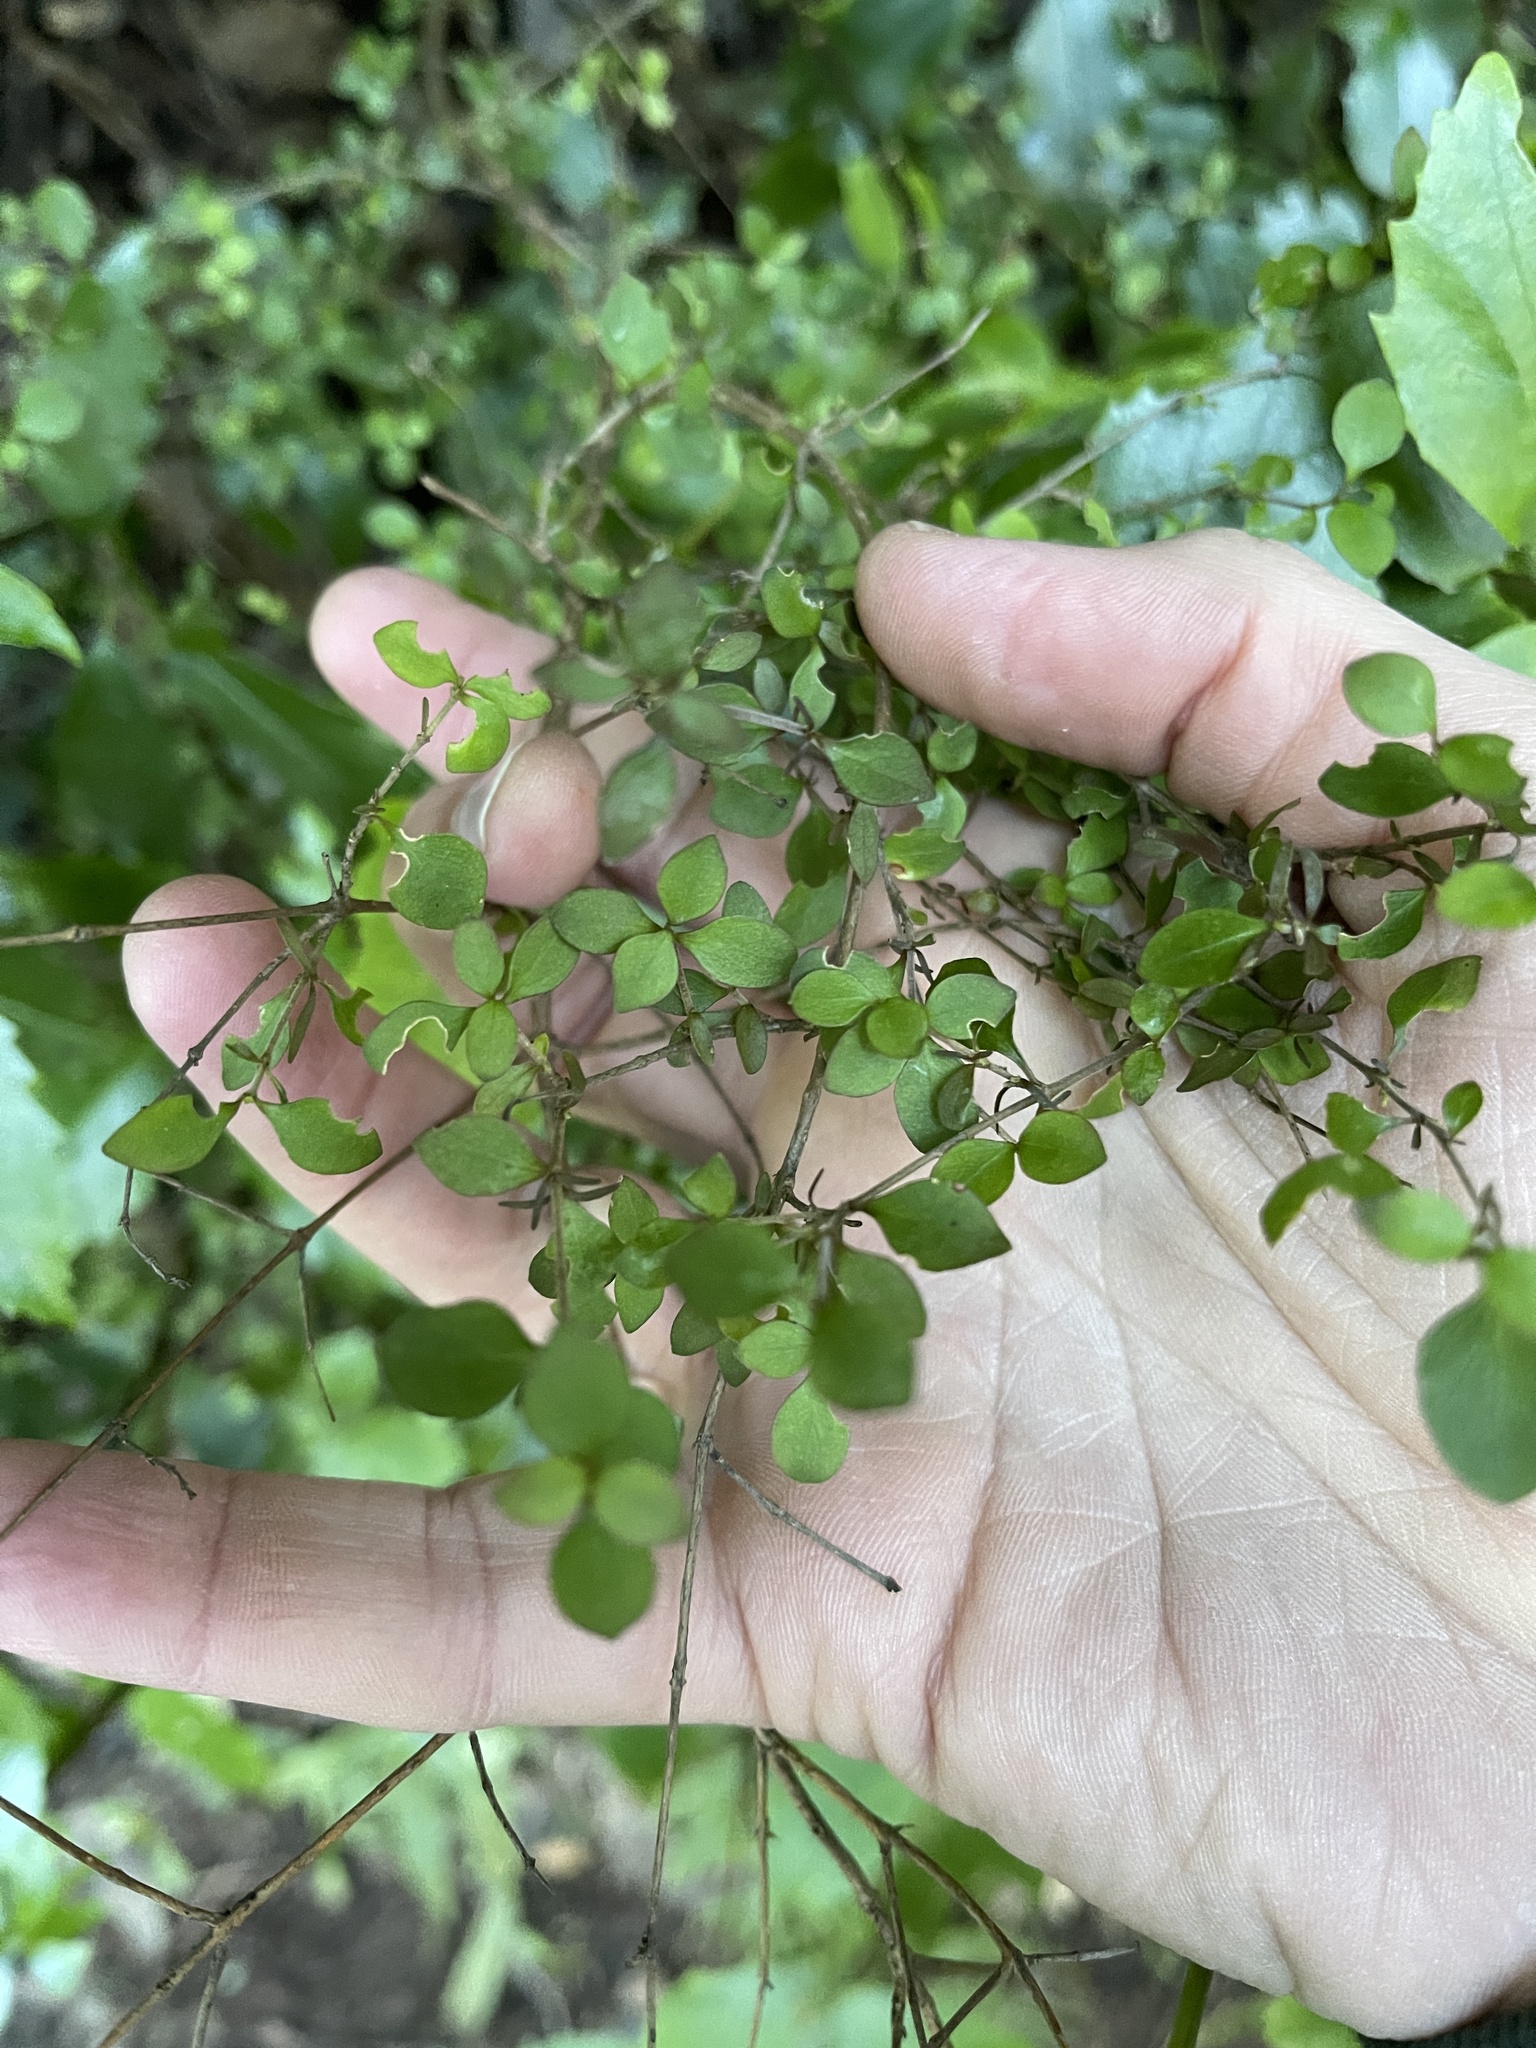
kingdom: Plantae
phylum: Tracheophyta
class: Magnoliopsida
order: Gentianales
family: Rubiaceae
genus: Coprosma
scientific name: Coprosma rhamnoides
